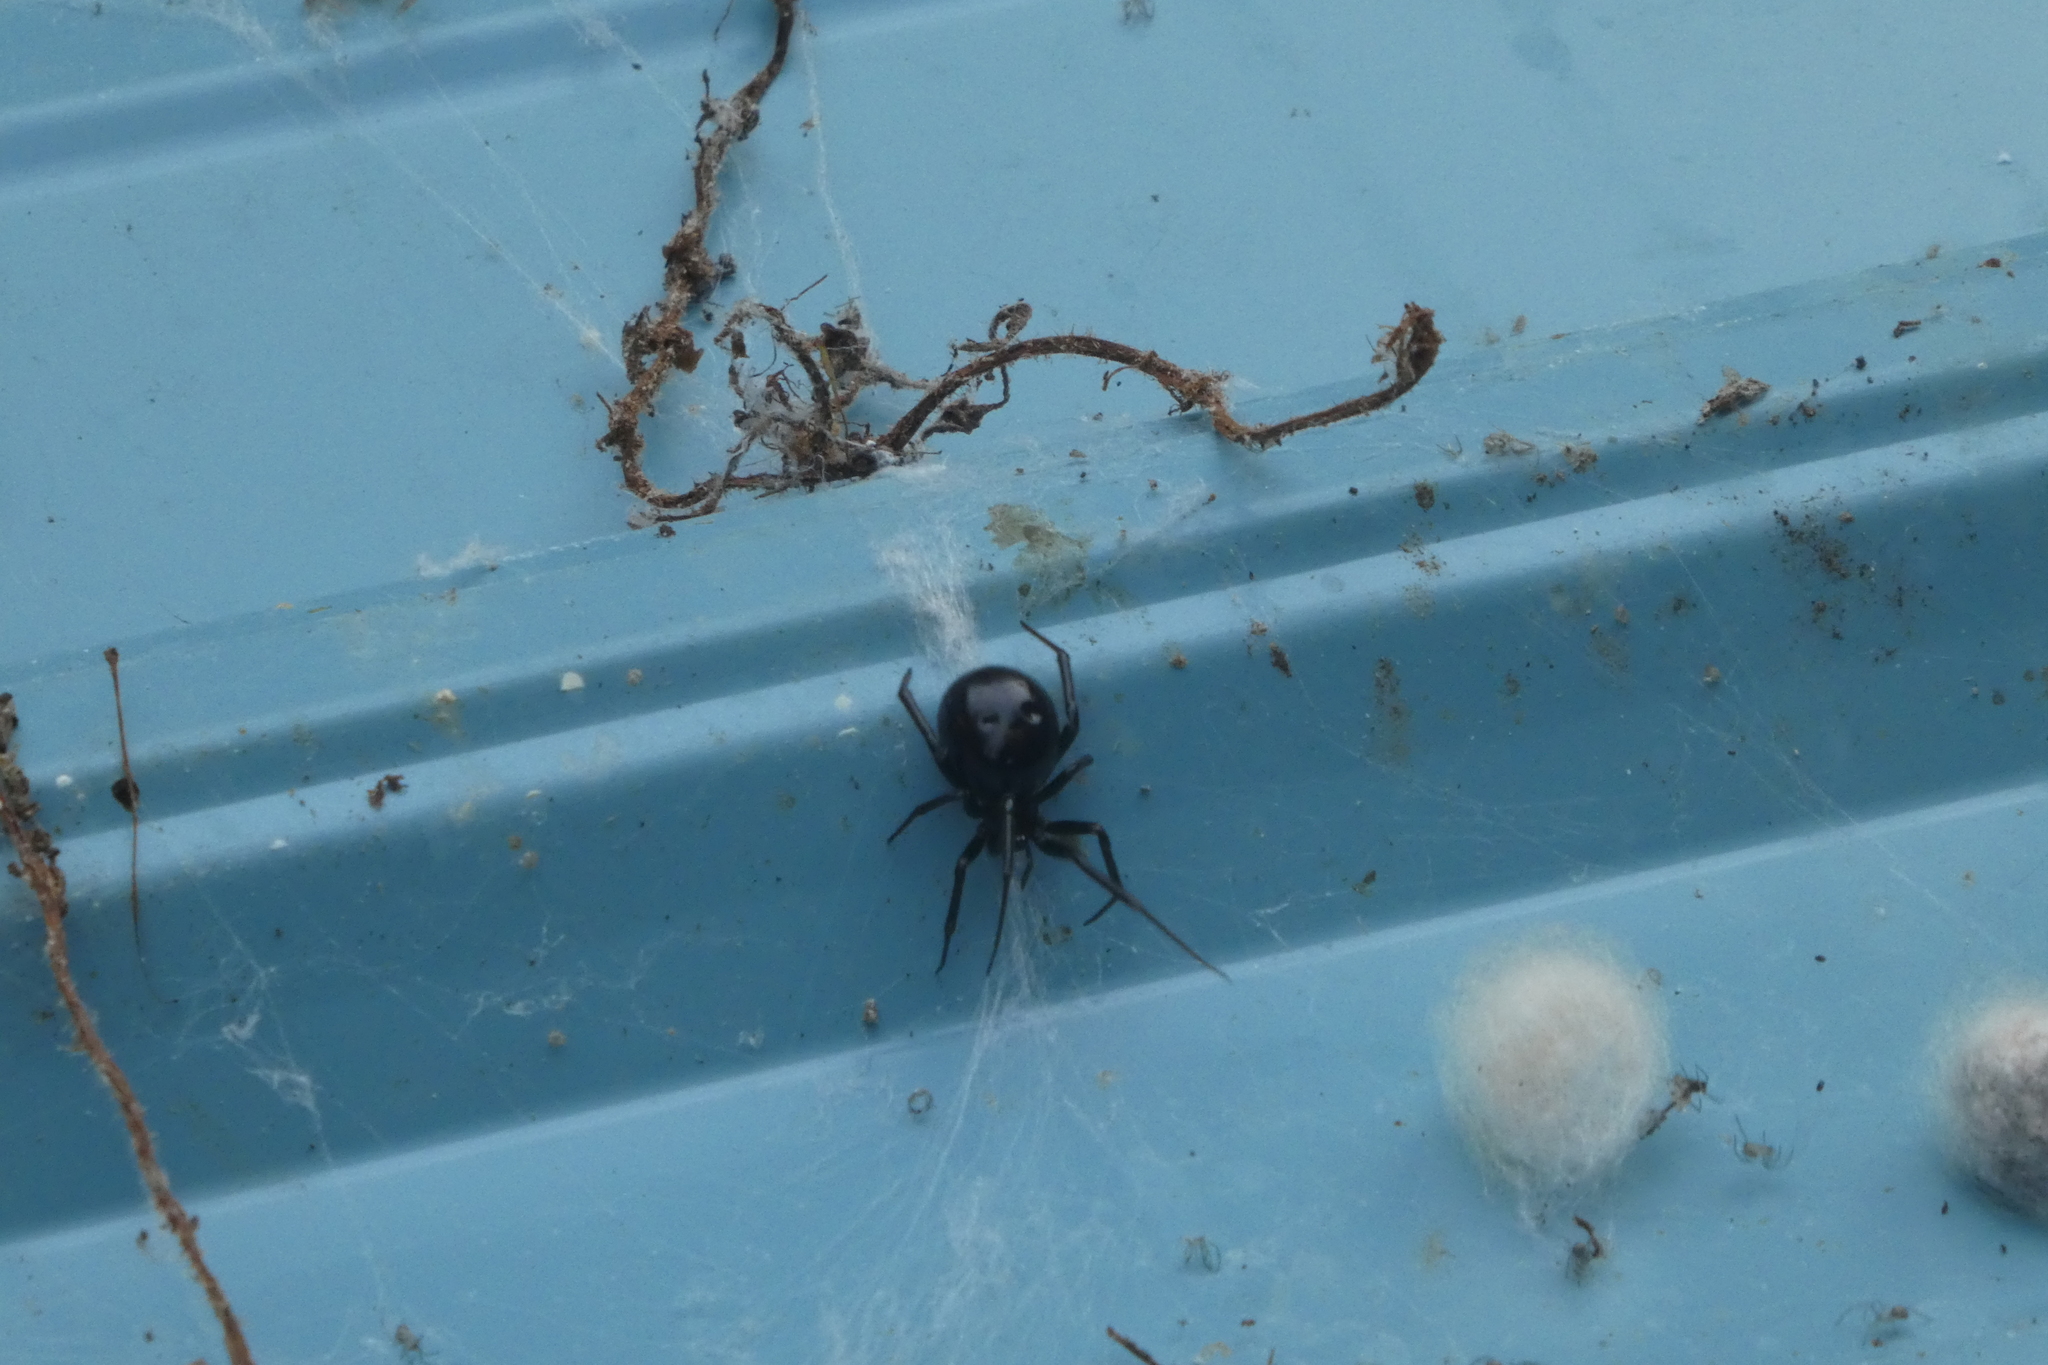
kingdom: Animalia
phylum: Arthropoda
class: Arachnida
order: Araneae
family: Theridiidae
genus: Steatoda
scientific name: Steatoda grossa
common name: False black widow
